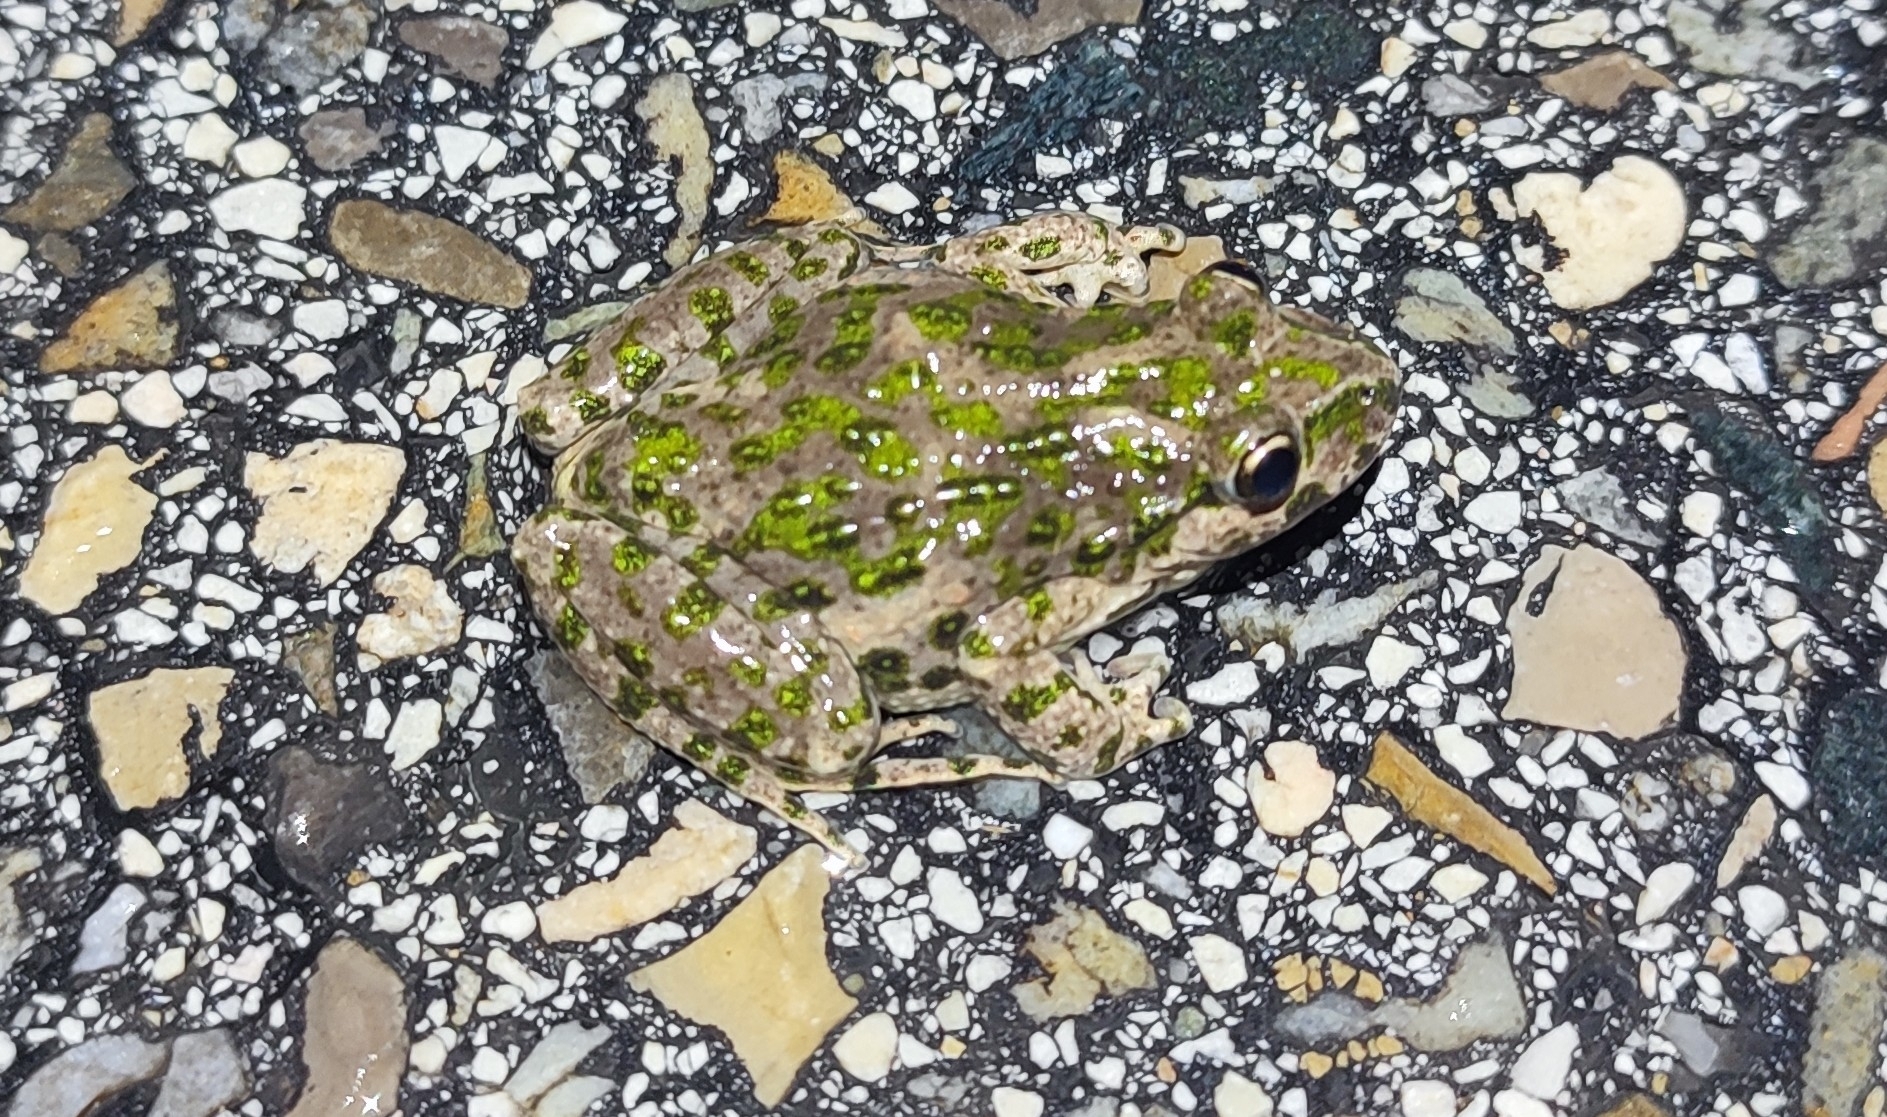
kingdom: Animalia
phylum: Chordata
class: Amphibia
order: Anura
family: Pelodytidae
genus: Pelodytes
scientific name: Pelodytes punctatus
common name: Parsley frog
